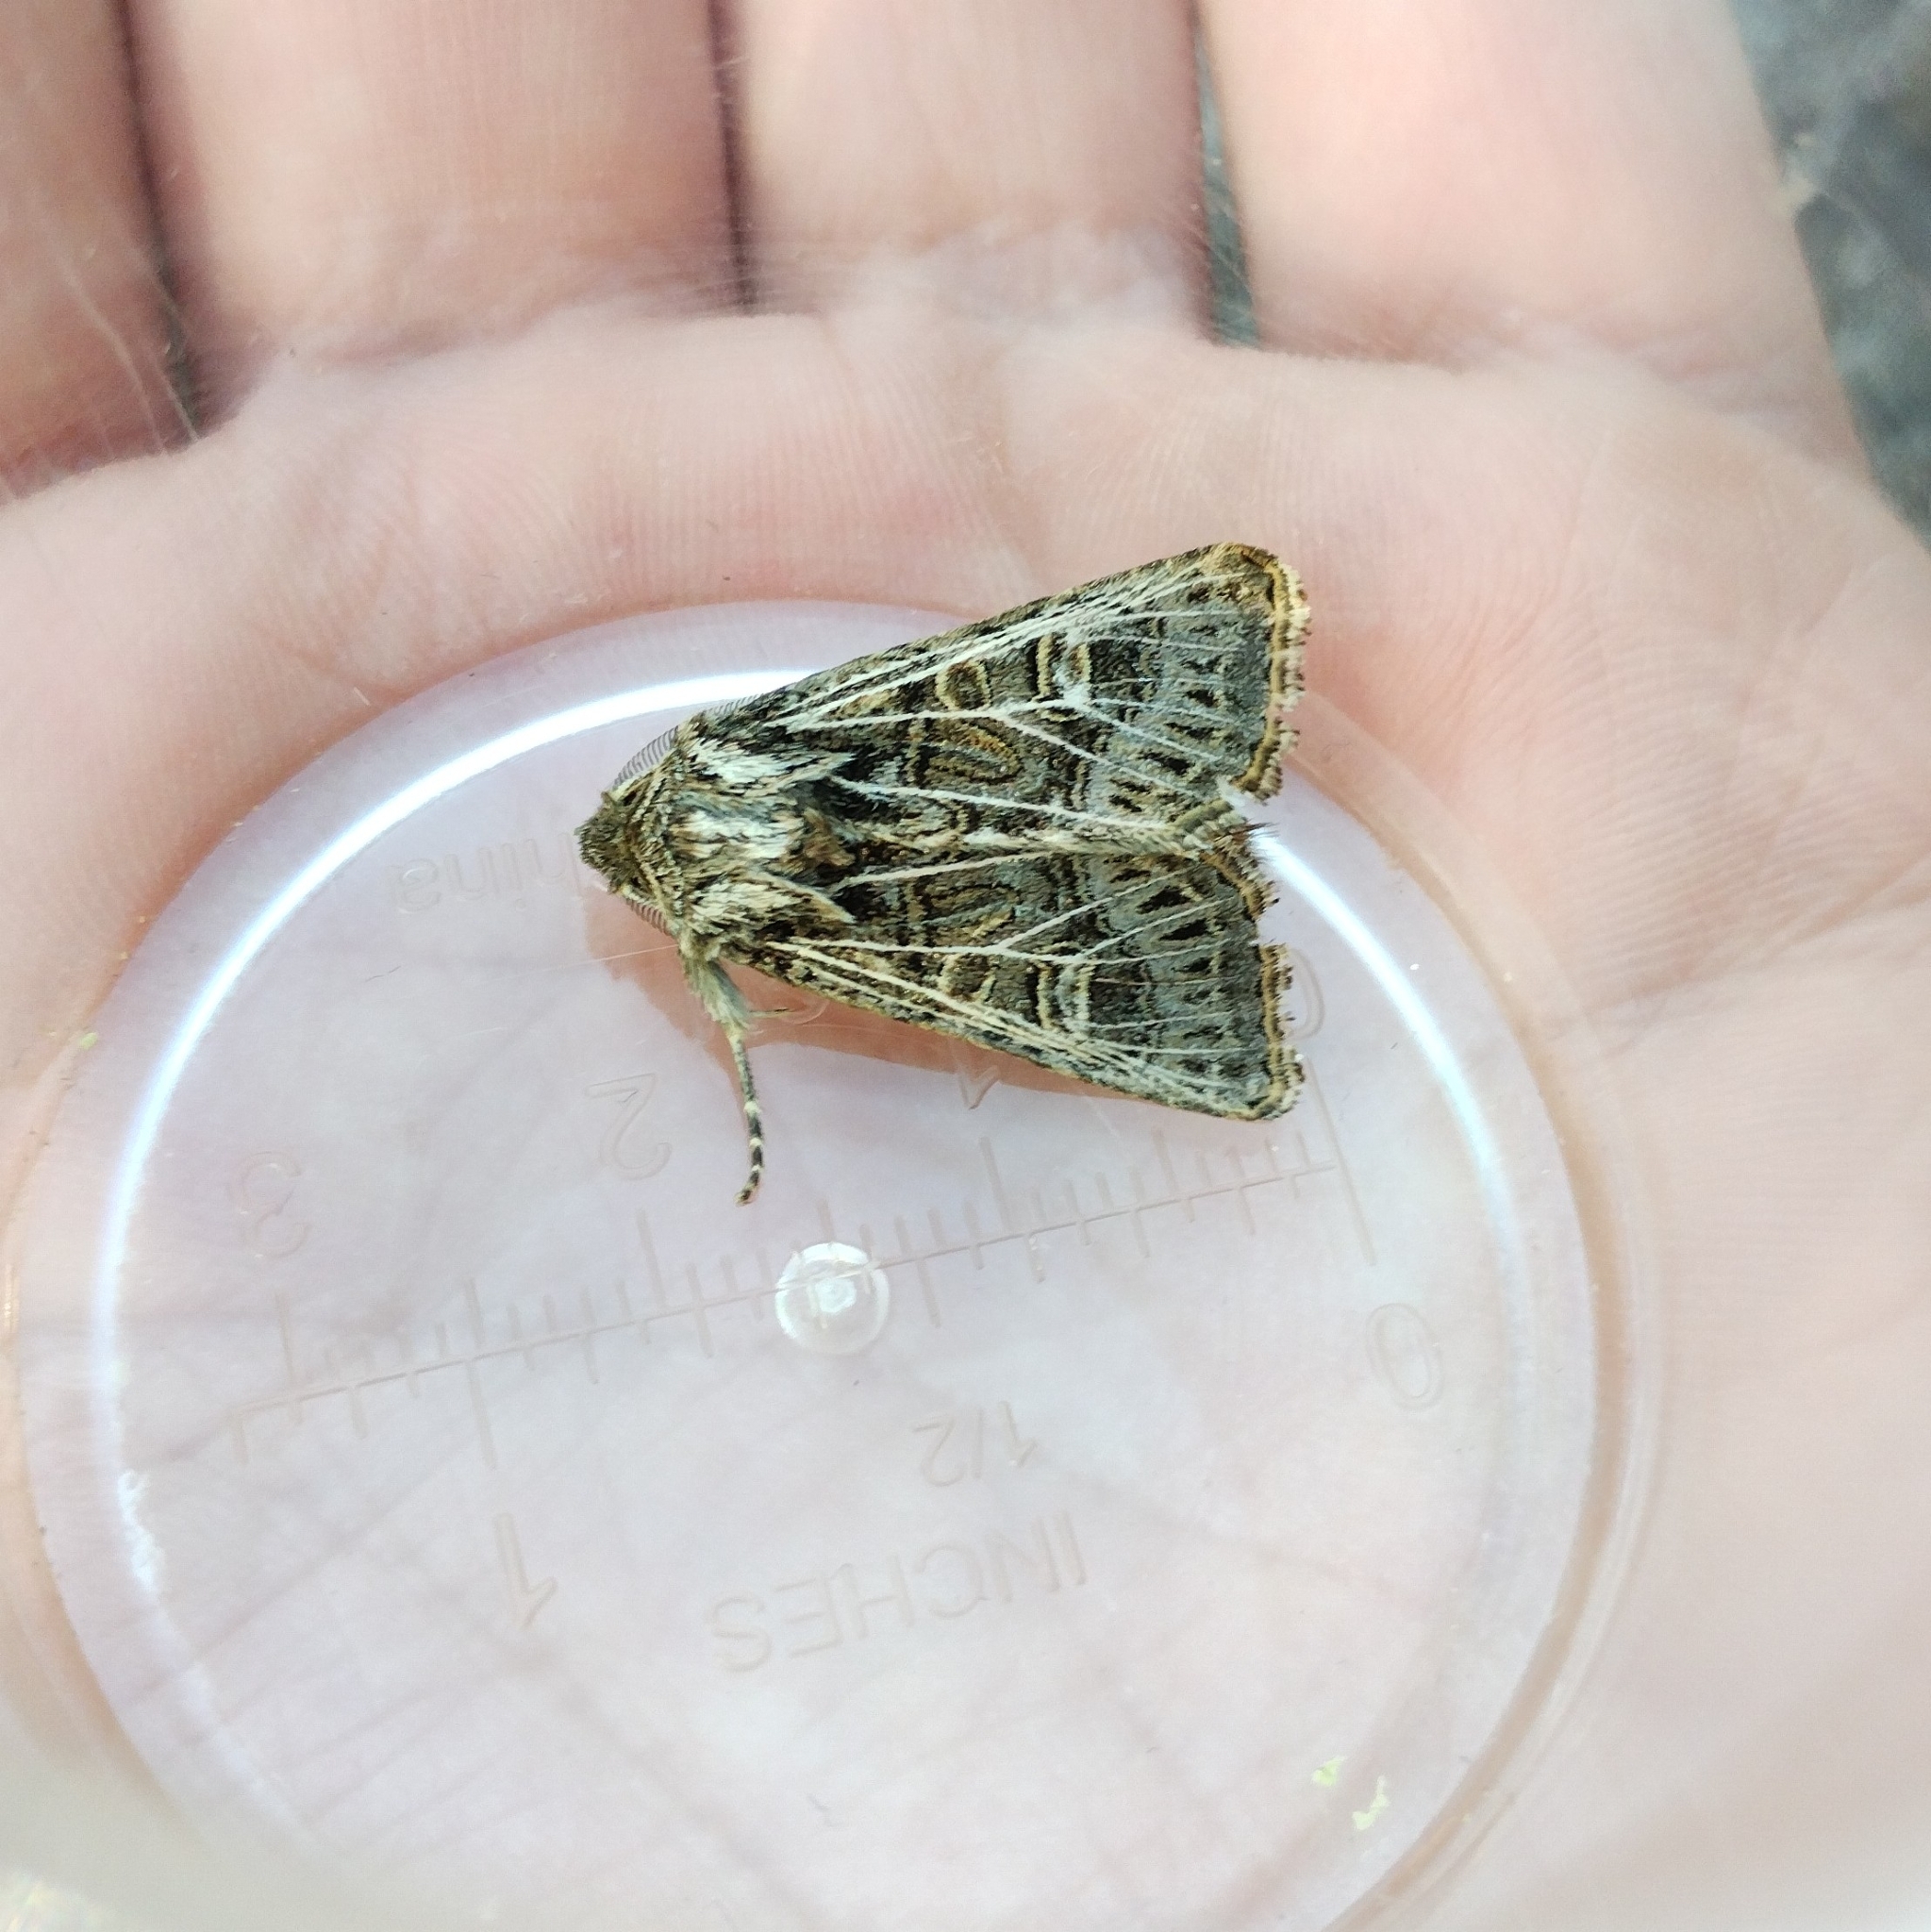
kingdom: Animalia
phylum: Arthropoda
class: Insecta
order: Lepidoptera
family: Noctuidae
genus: Tholera
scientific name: Tholera decimalis
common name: Feathered gothic
